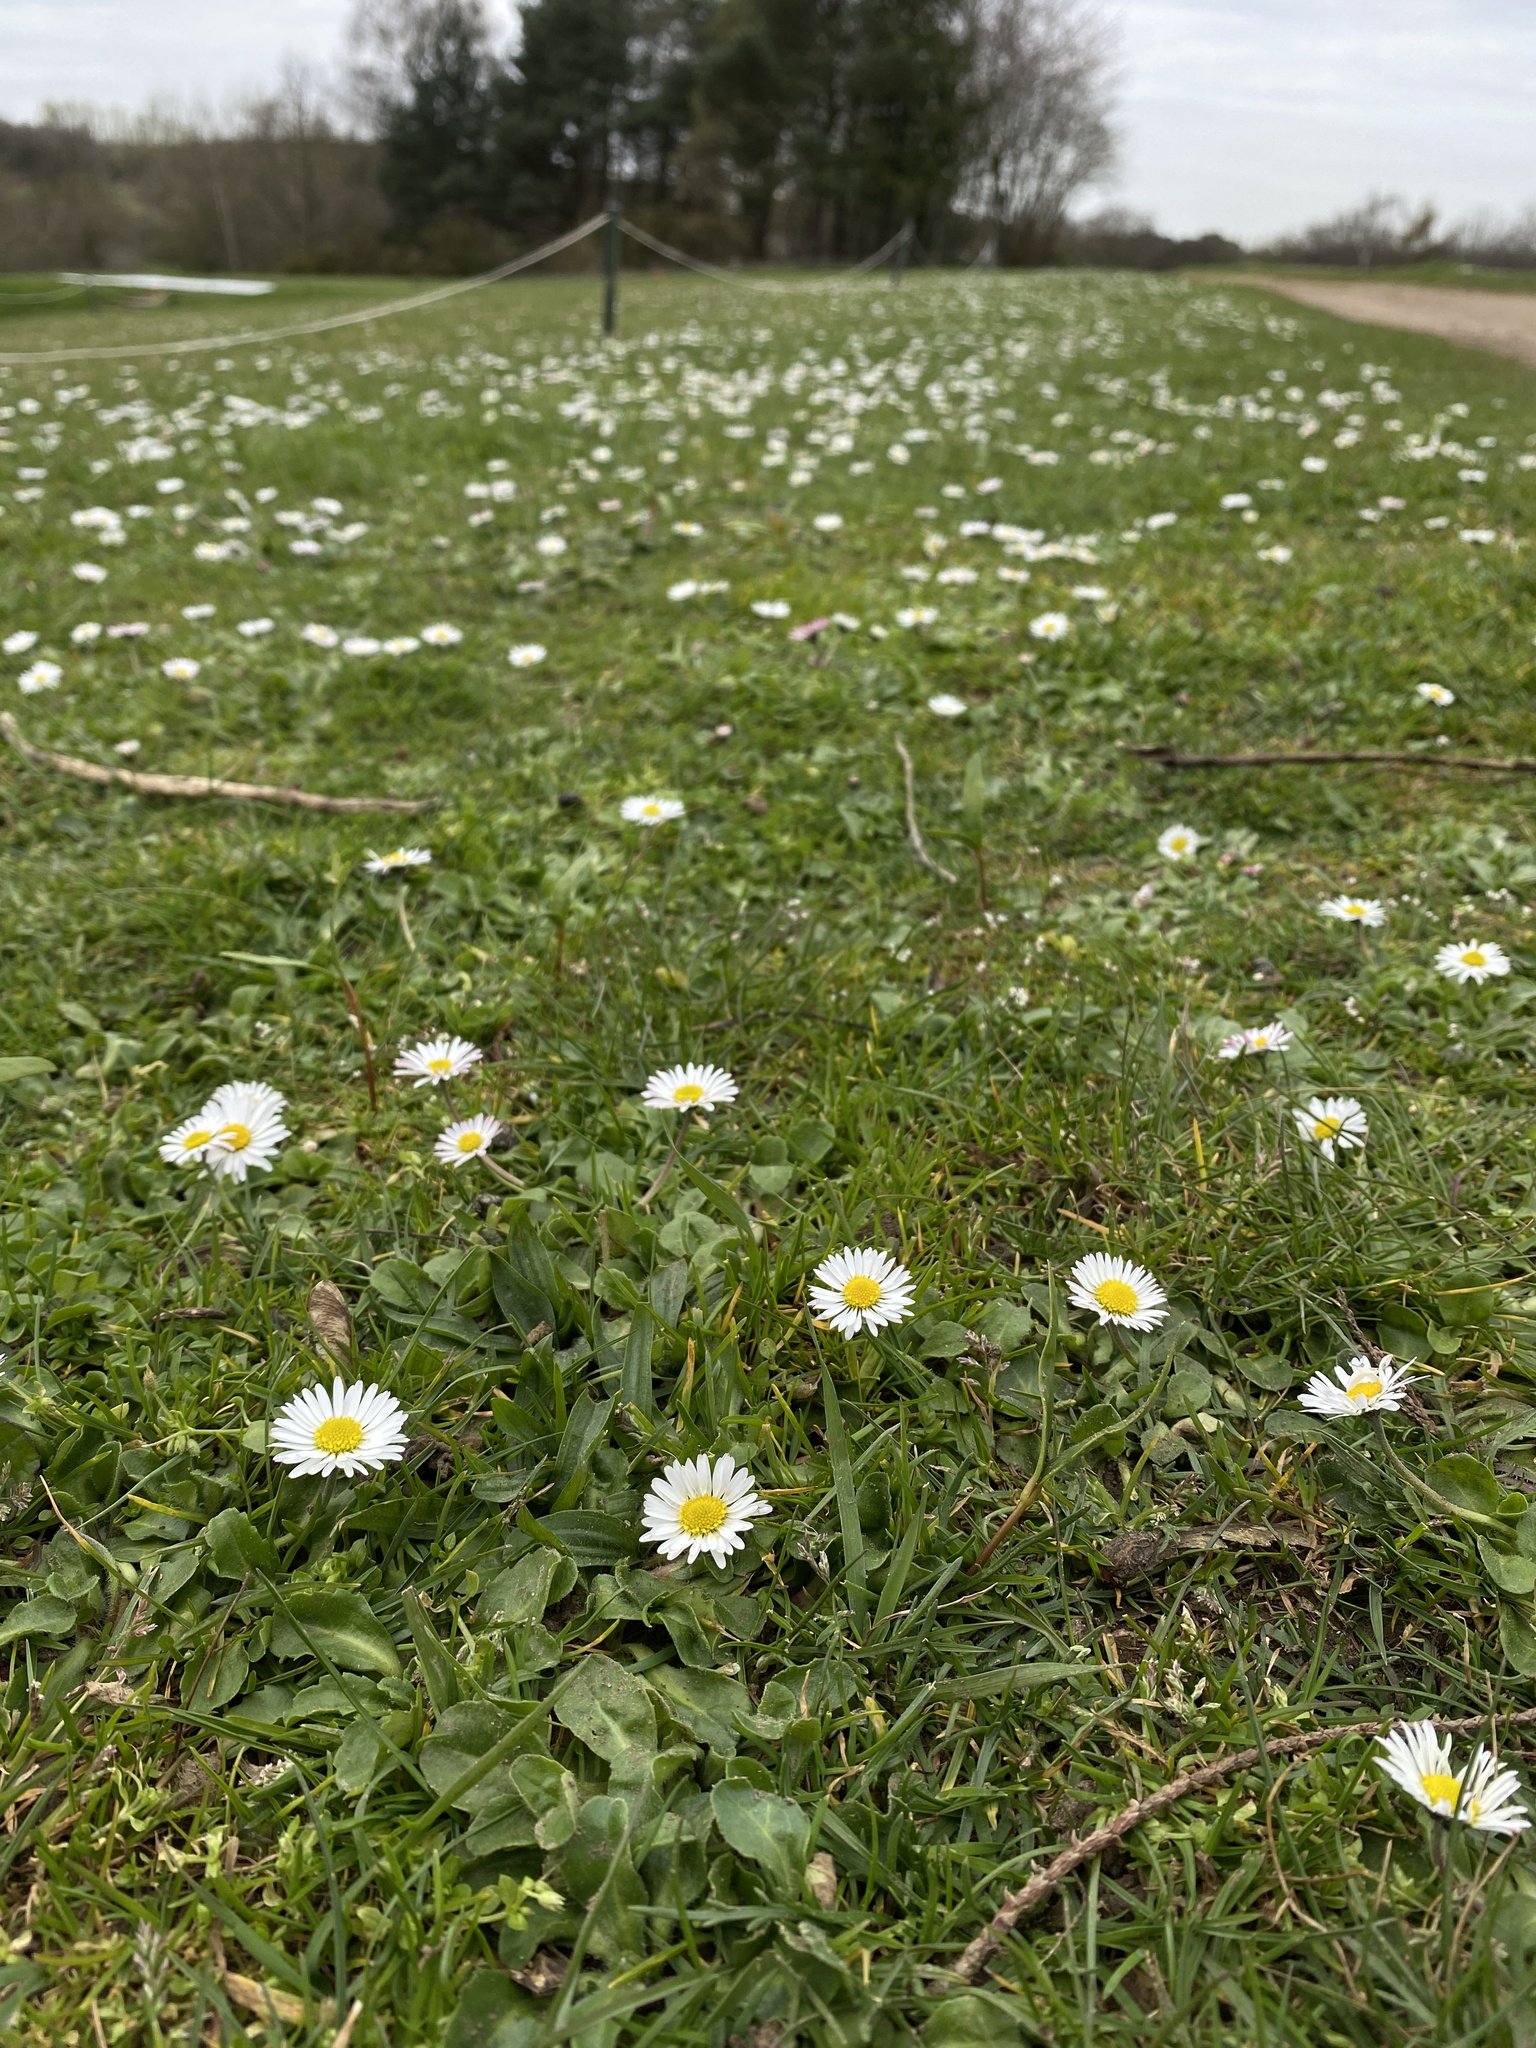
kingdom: Plantae
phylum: Tracheophyta
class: Magnoliopsida
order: Asterales
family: Asteraceae
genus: Bellis
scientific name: Bellis perennis
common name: Lawndaisy
